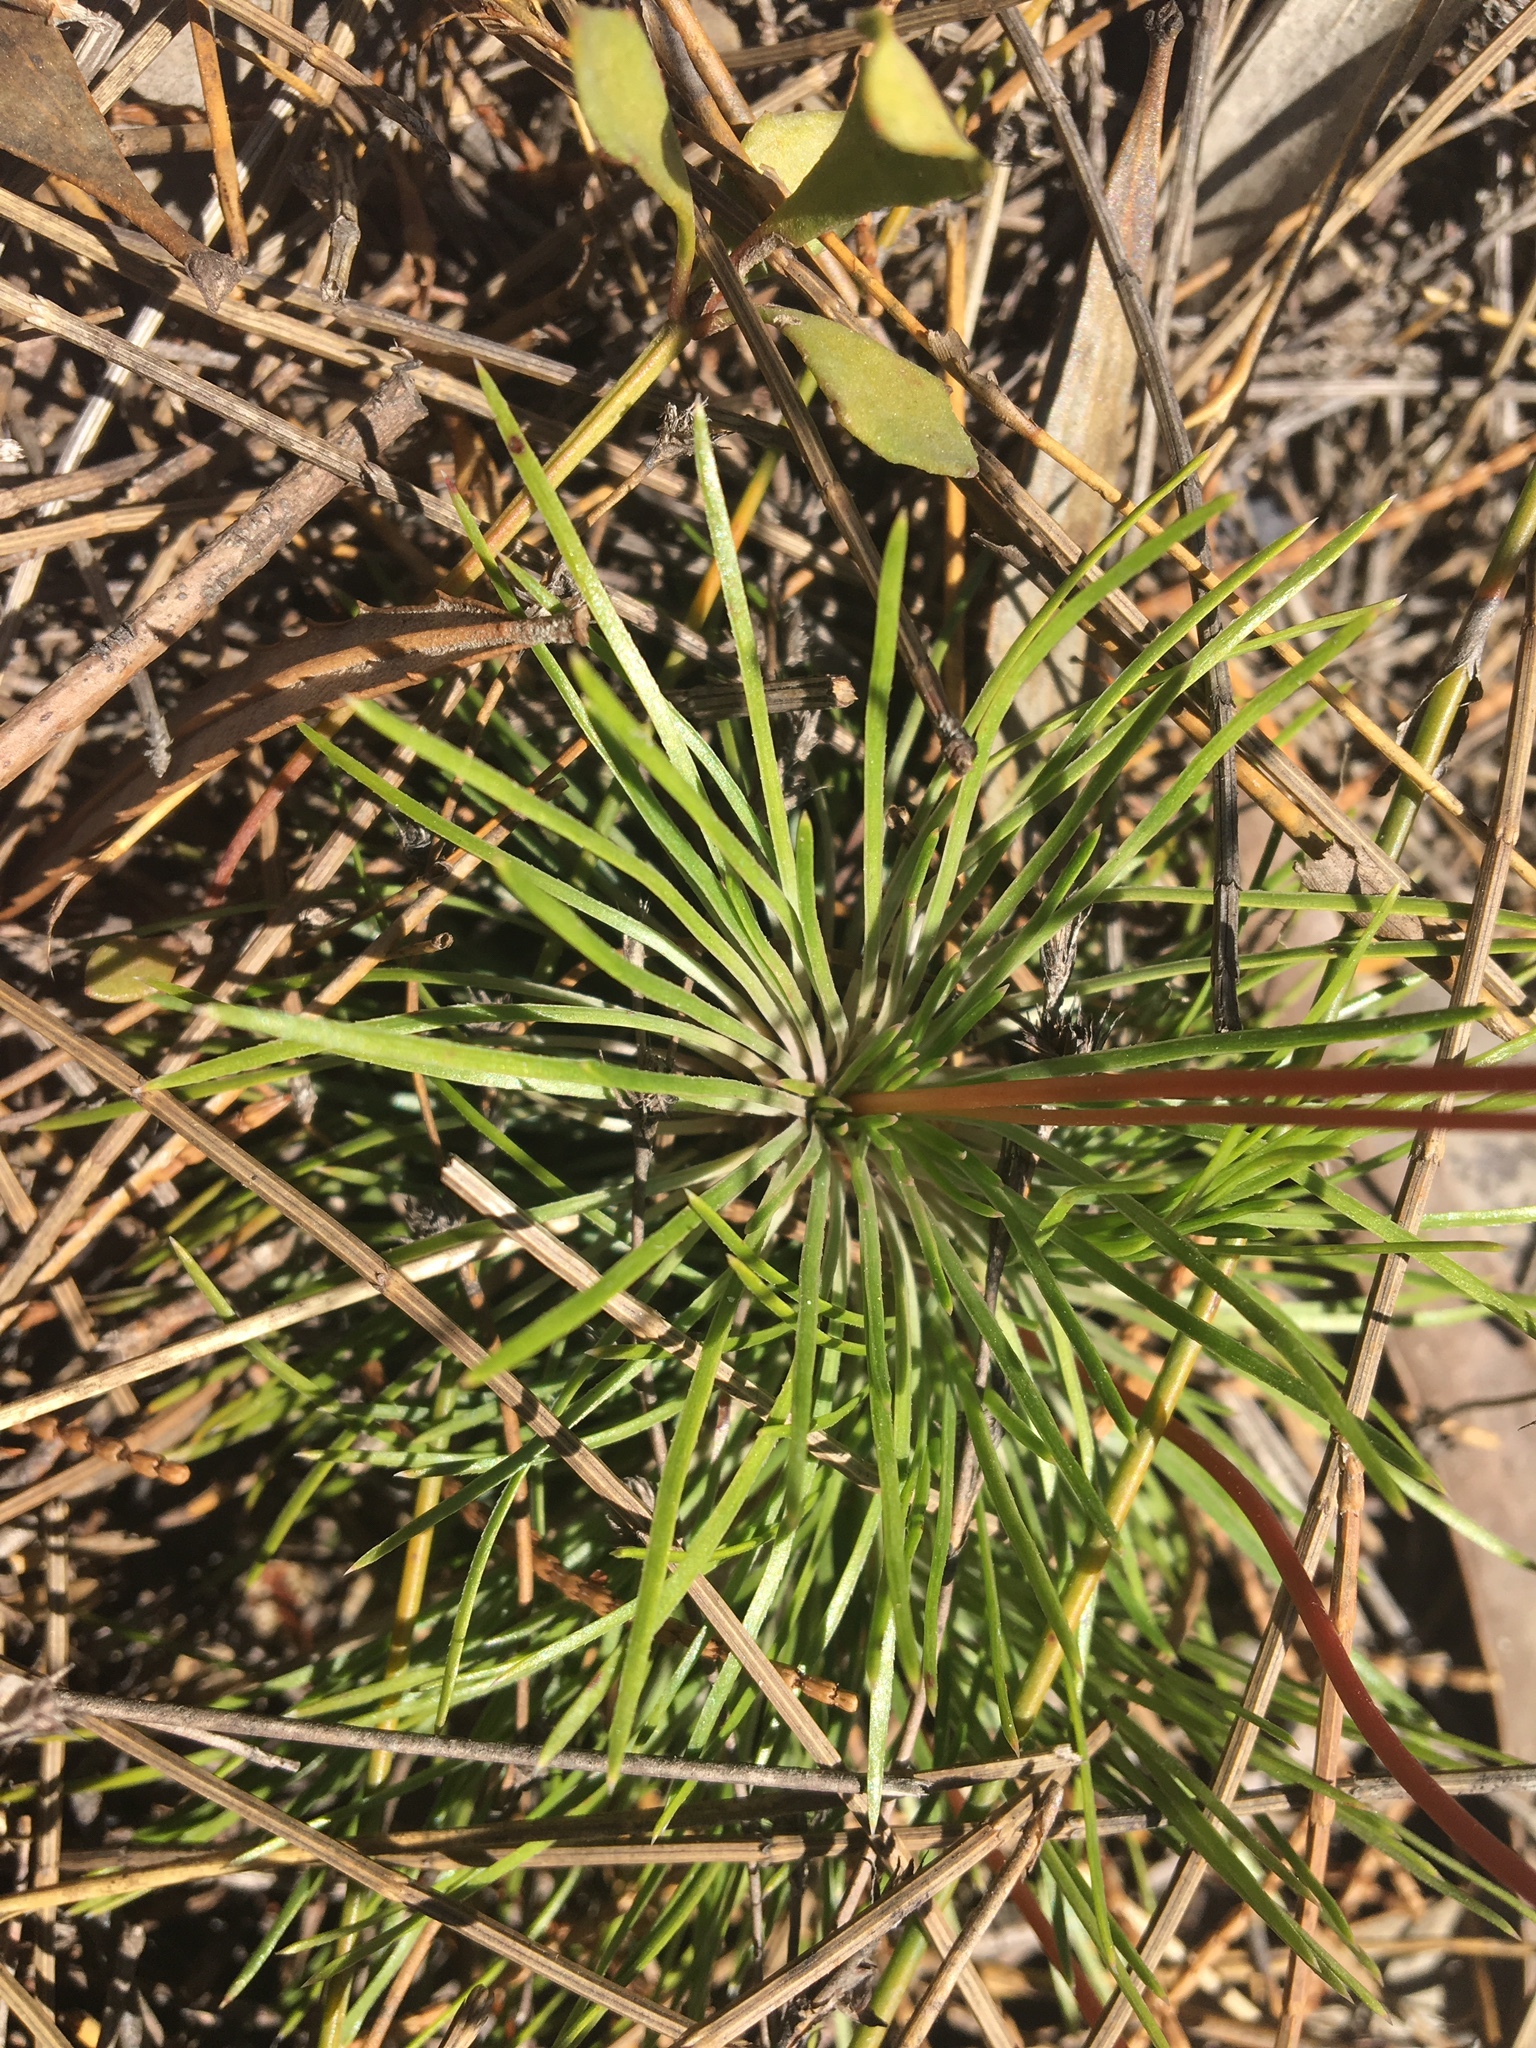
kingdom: Plantae
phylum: Tracheophyta
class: Magnoliopsida
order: Asterales
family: Stylidiaceae
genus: Stylidium
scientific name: Stylidium graminifolium
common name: Grass triggerplant
